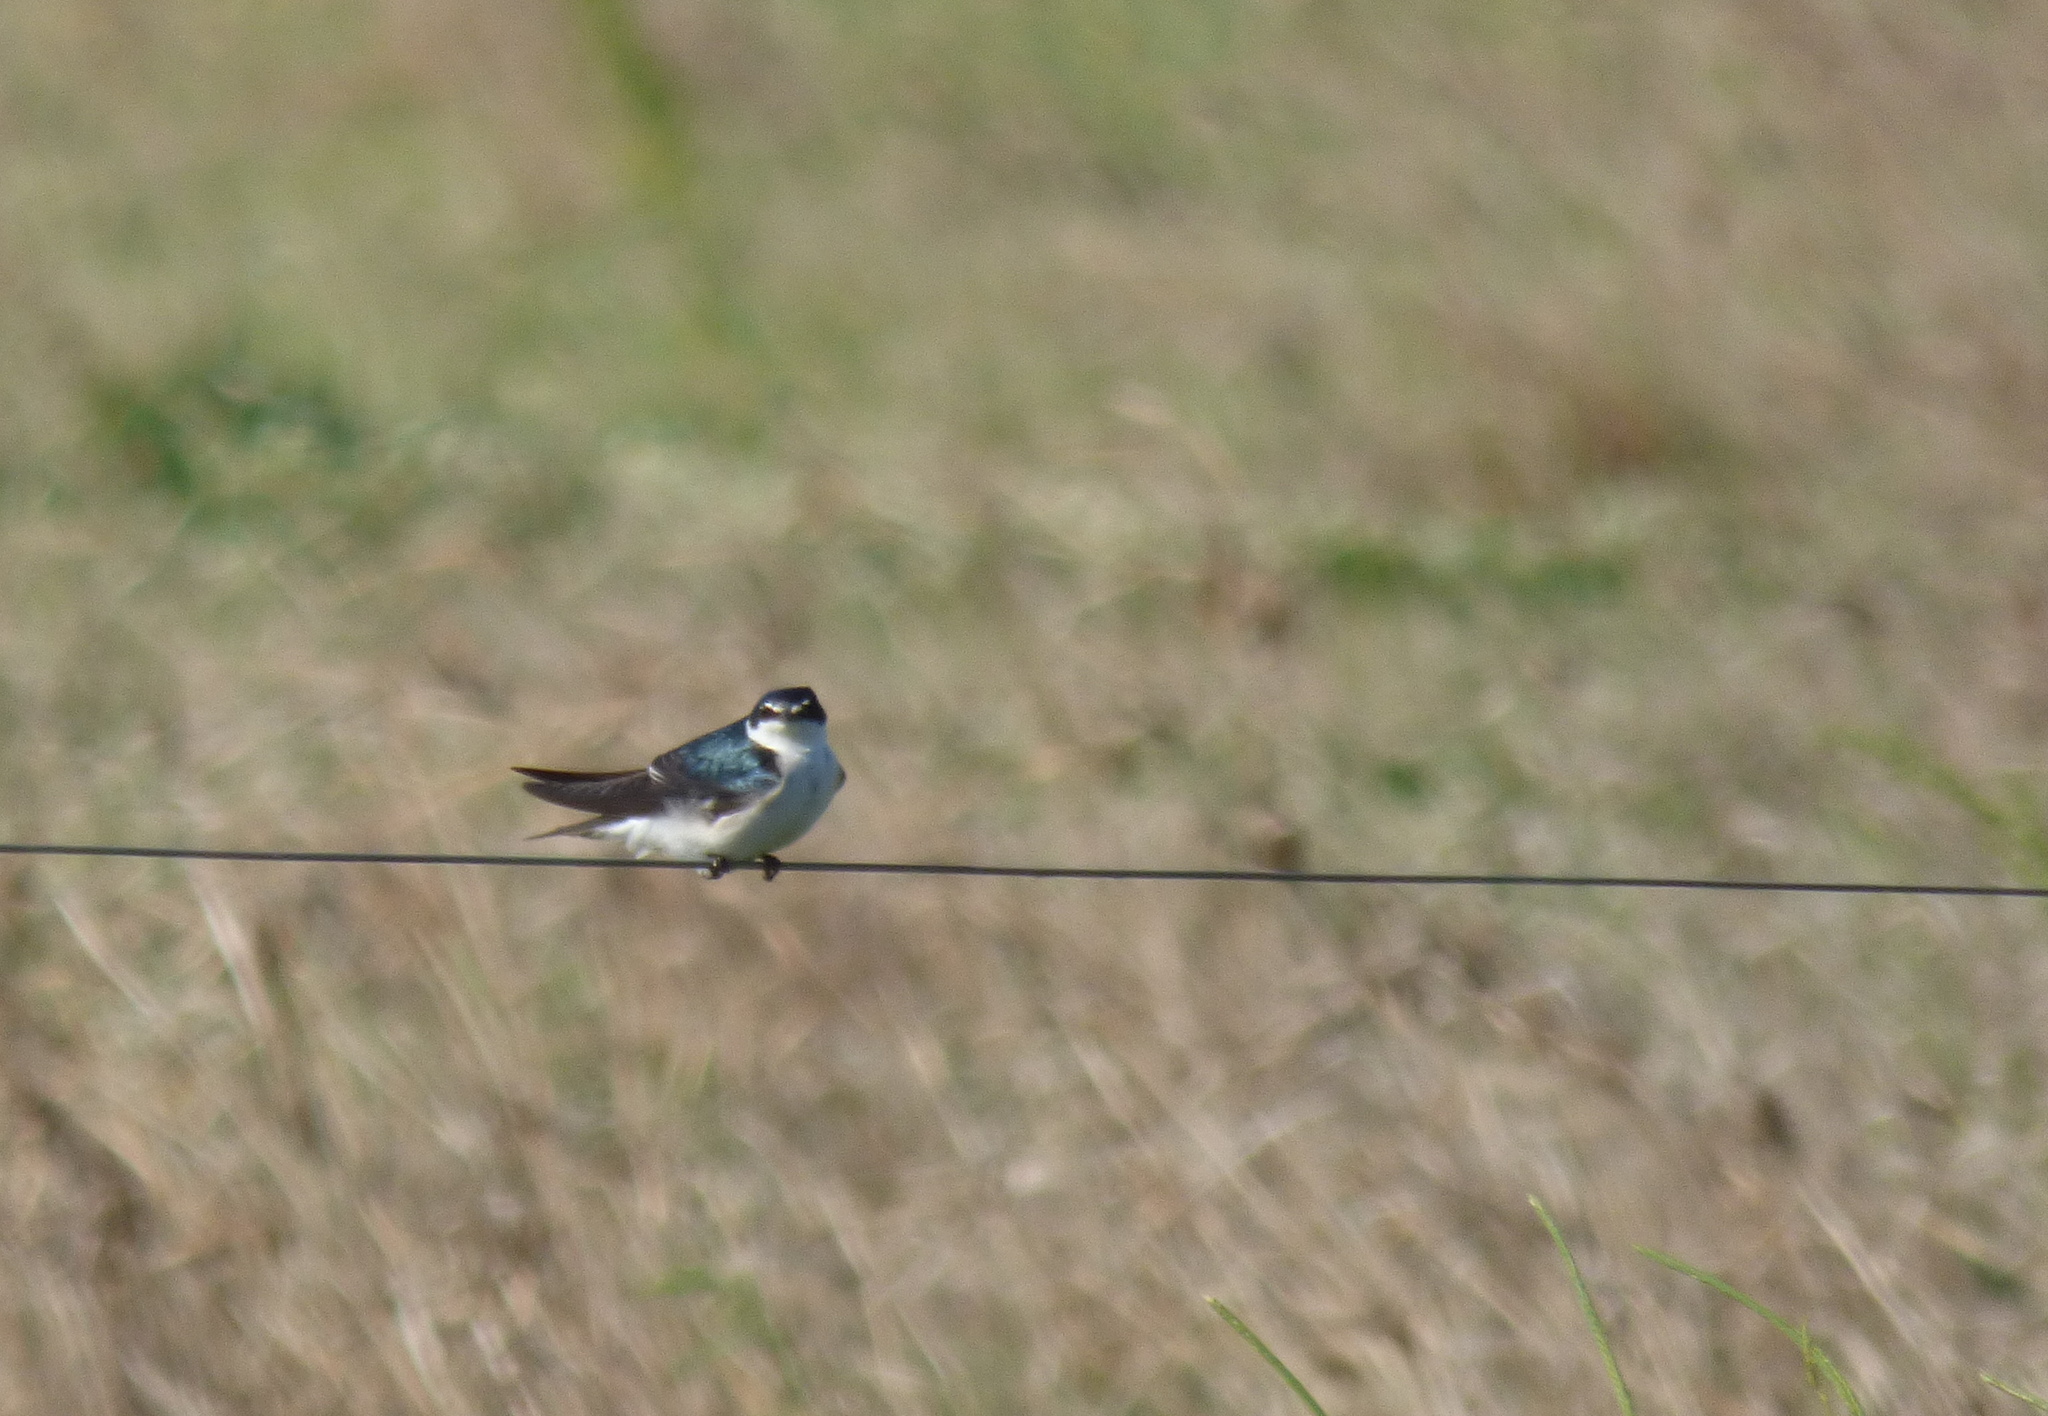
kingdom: Animalia
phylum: Chordata
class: Aves
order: Passeriformes
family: Hirundinidae
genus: Tachycineta
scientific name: Tachycineta leucorrhoa
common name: White-rumped swallow
